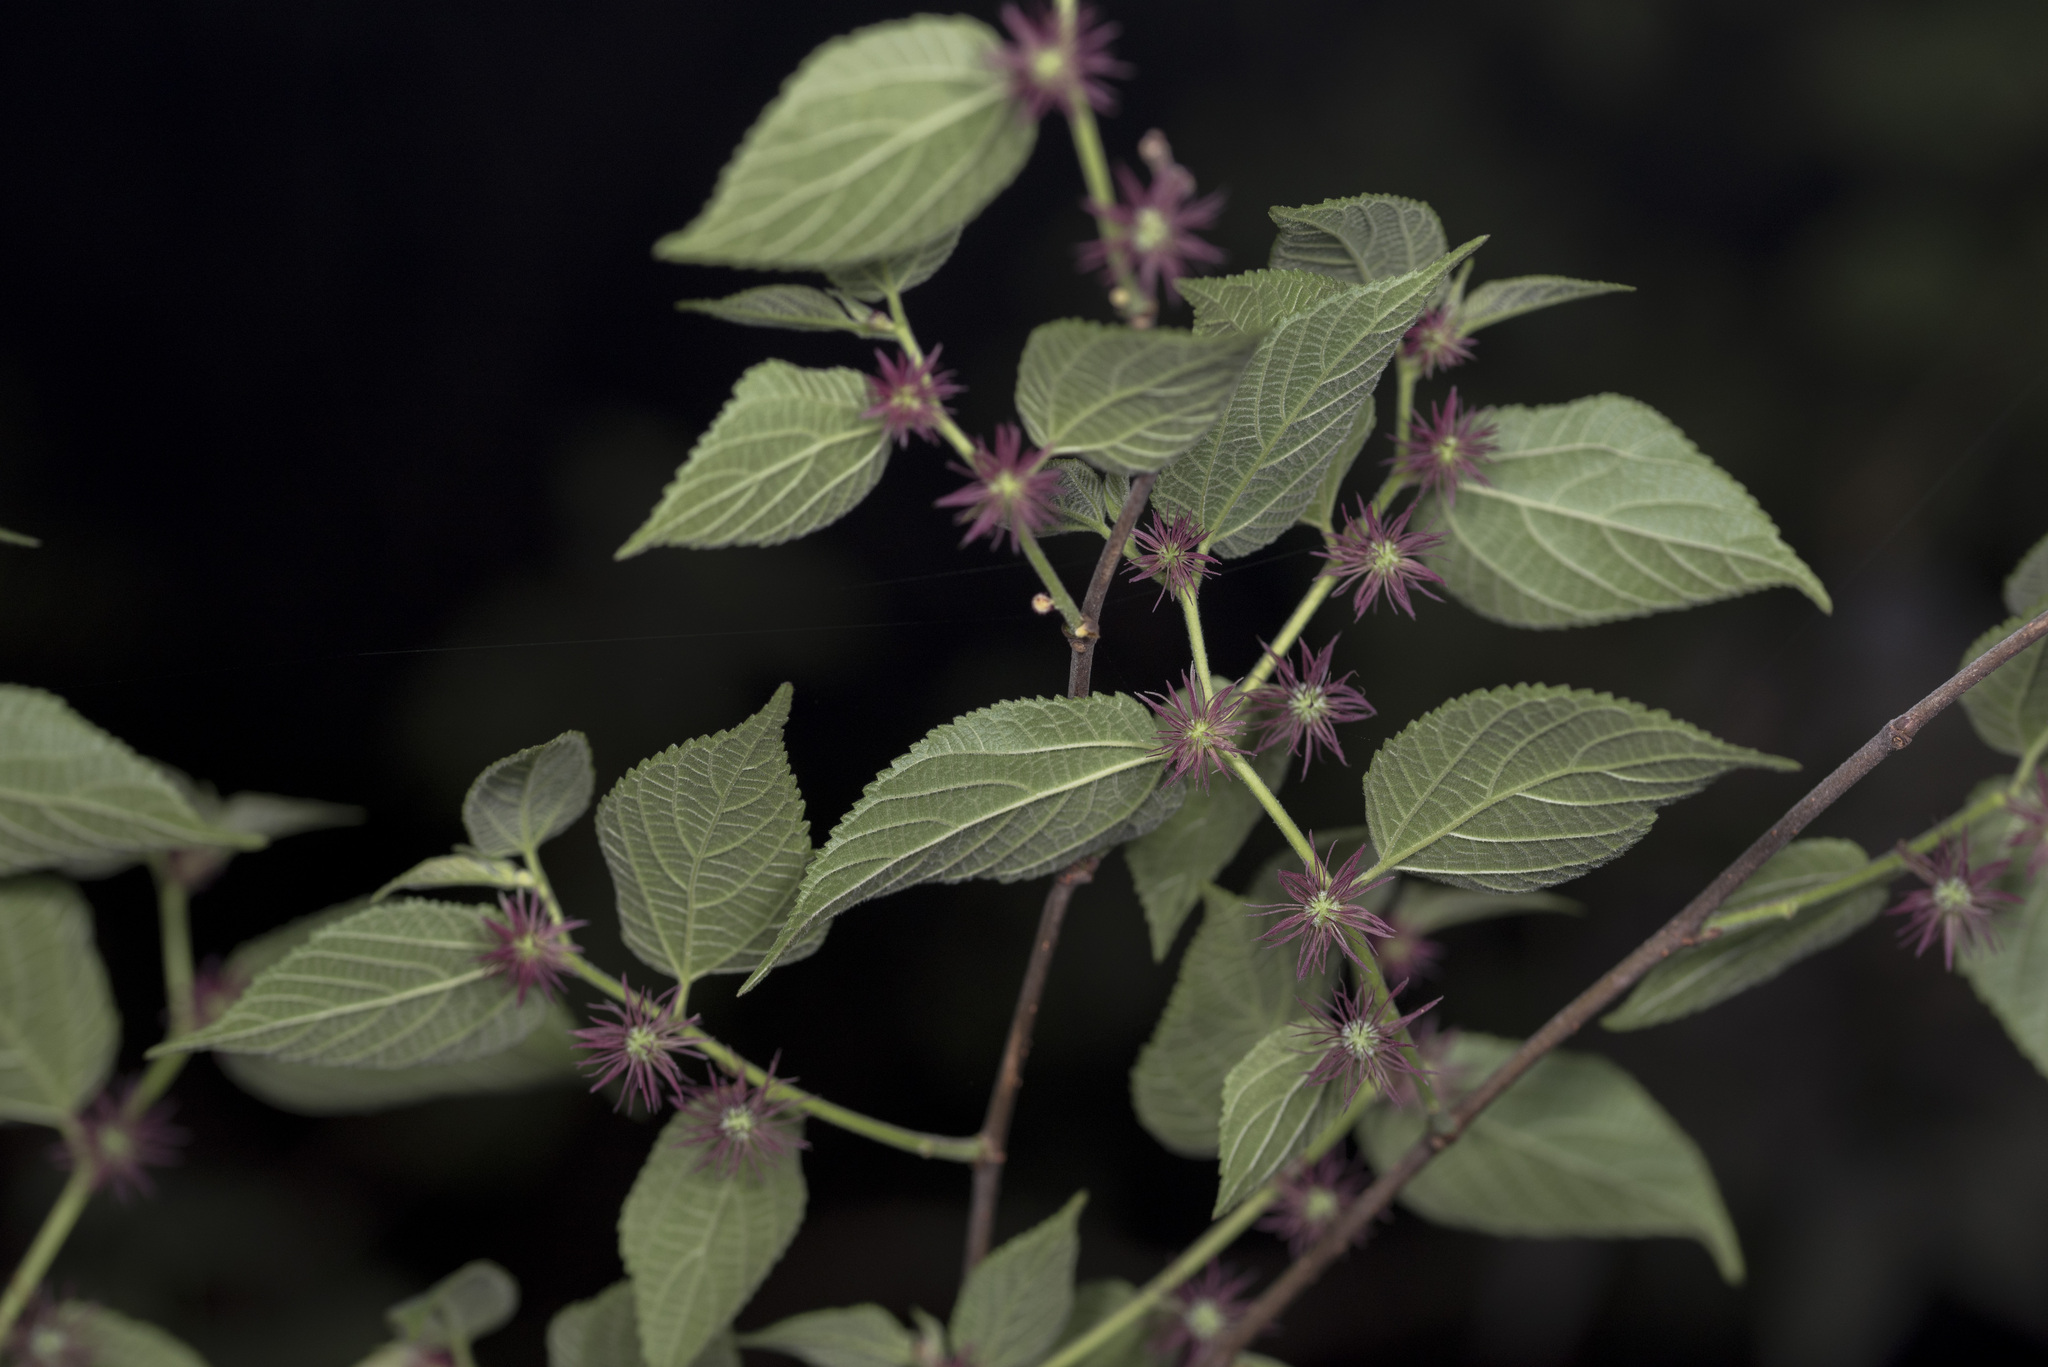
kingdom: Plantae
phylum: Tracheophyta
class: Magnoliopsida
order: Rosales
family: Moraceae
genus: Broussonetia
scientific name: Broussonetia monoica
